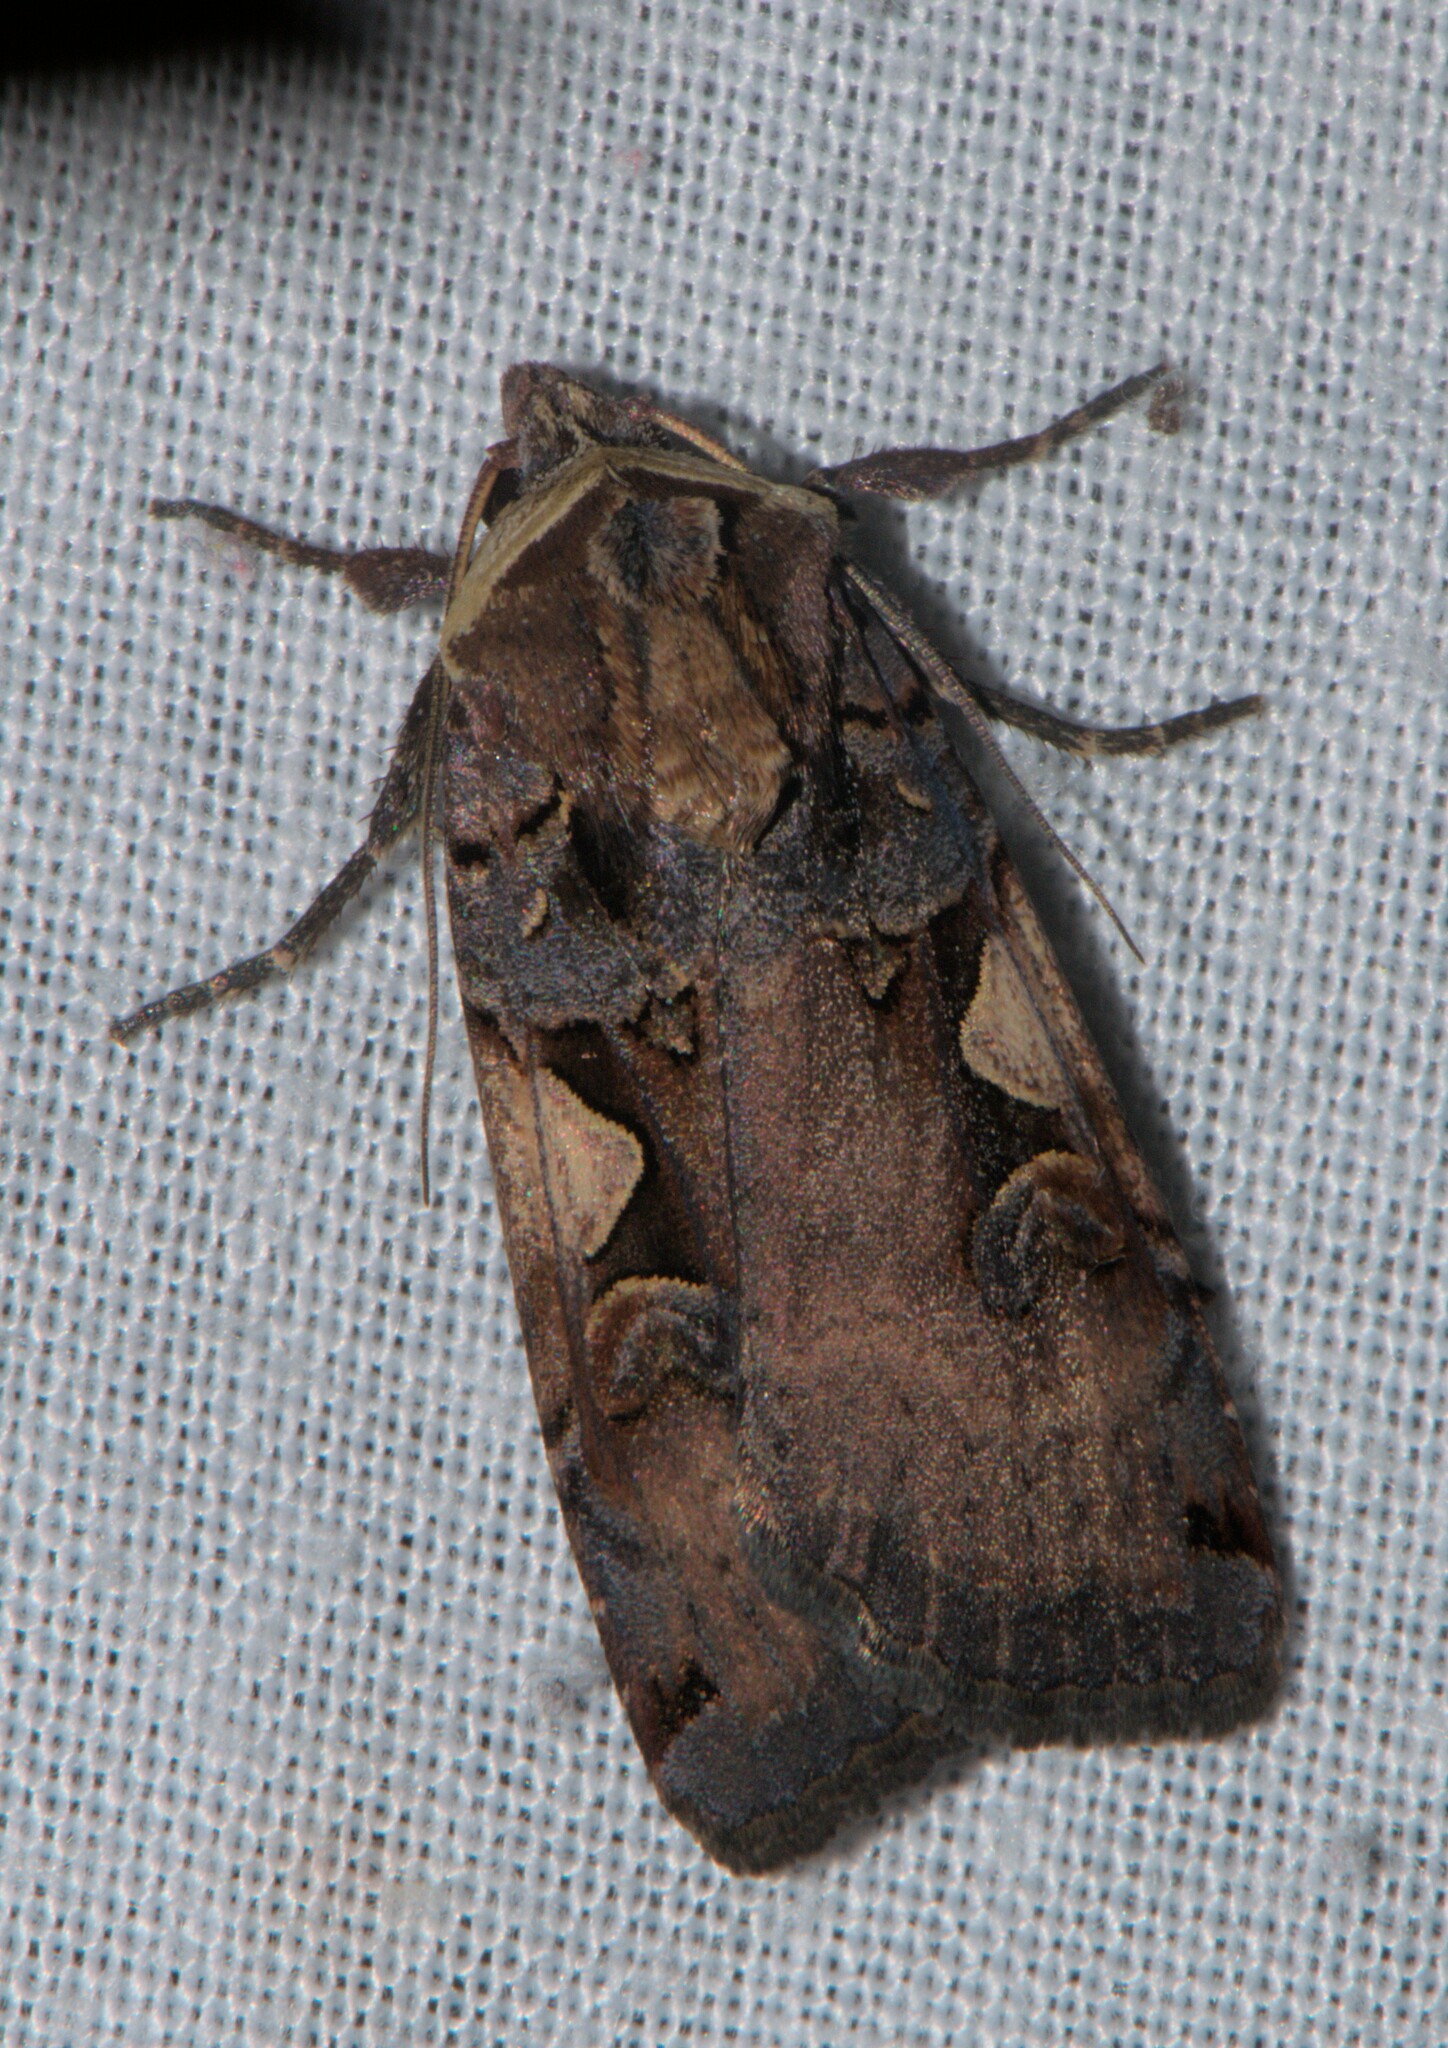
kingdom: Animalia
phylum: Arthropoda
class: Insecta
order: Lepidoptera
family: Noctuidae
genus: Xestia
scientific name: Xestia c-nigrum
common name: Setaceous hebrew character
